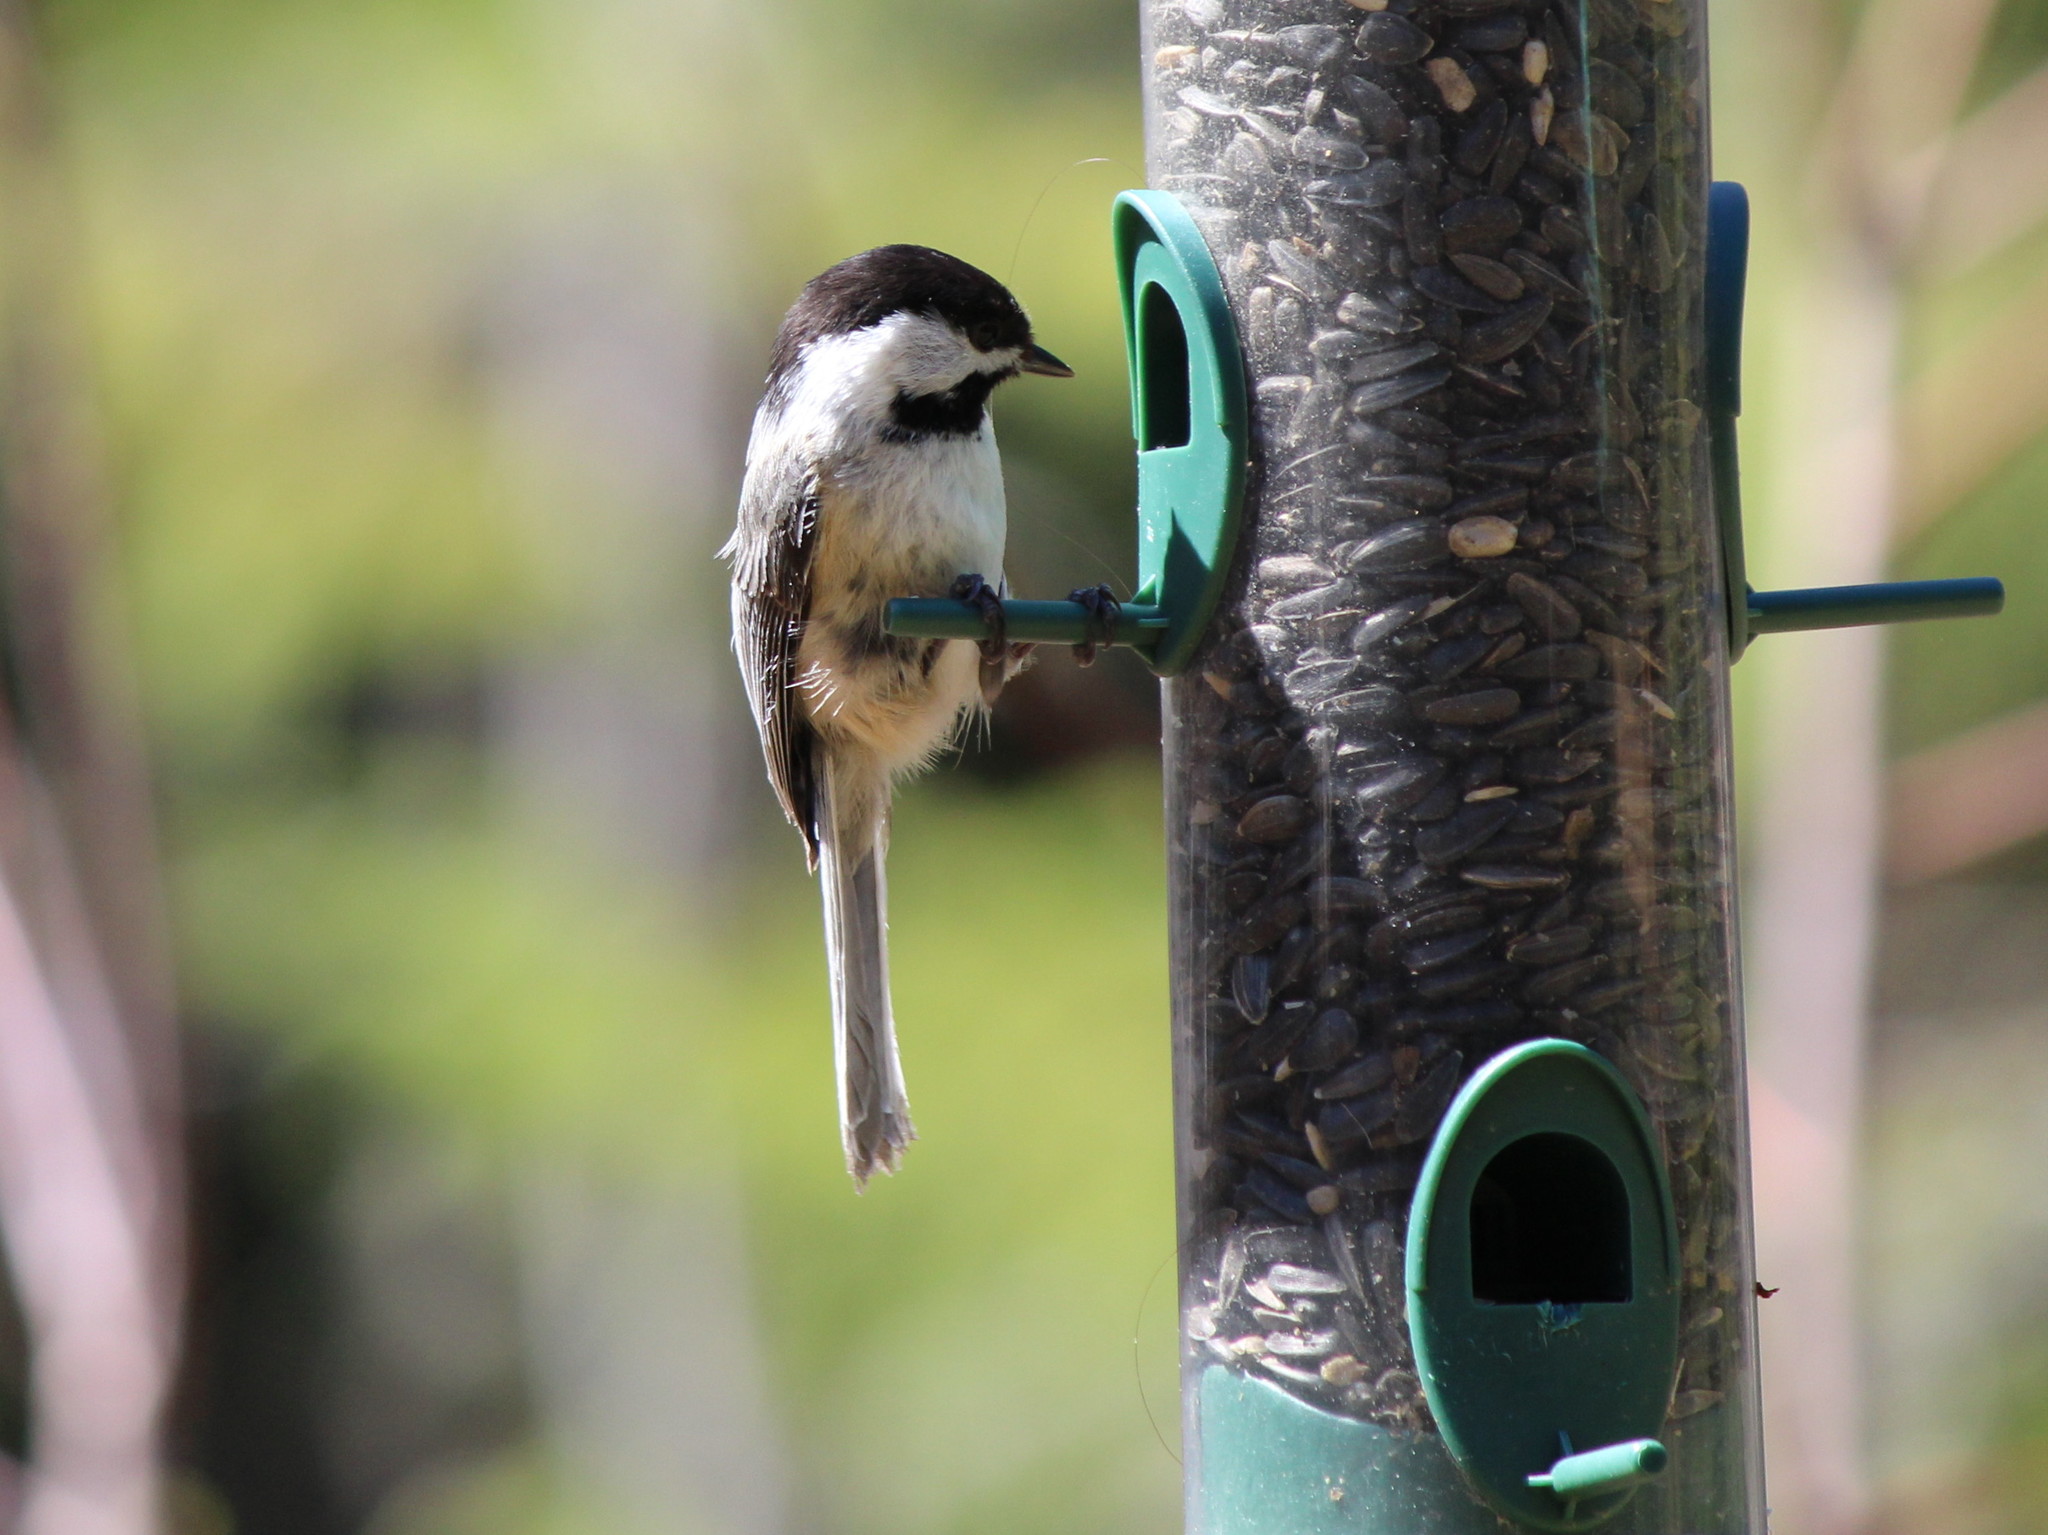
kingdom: Animalia
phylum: Chordata
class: Aves
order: Passeriformes
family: Paridae
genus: Poecile
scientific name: Poecile atricapillus
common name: Black-capped chickadee
